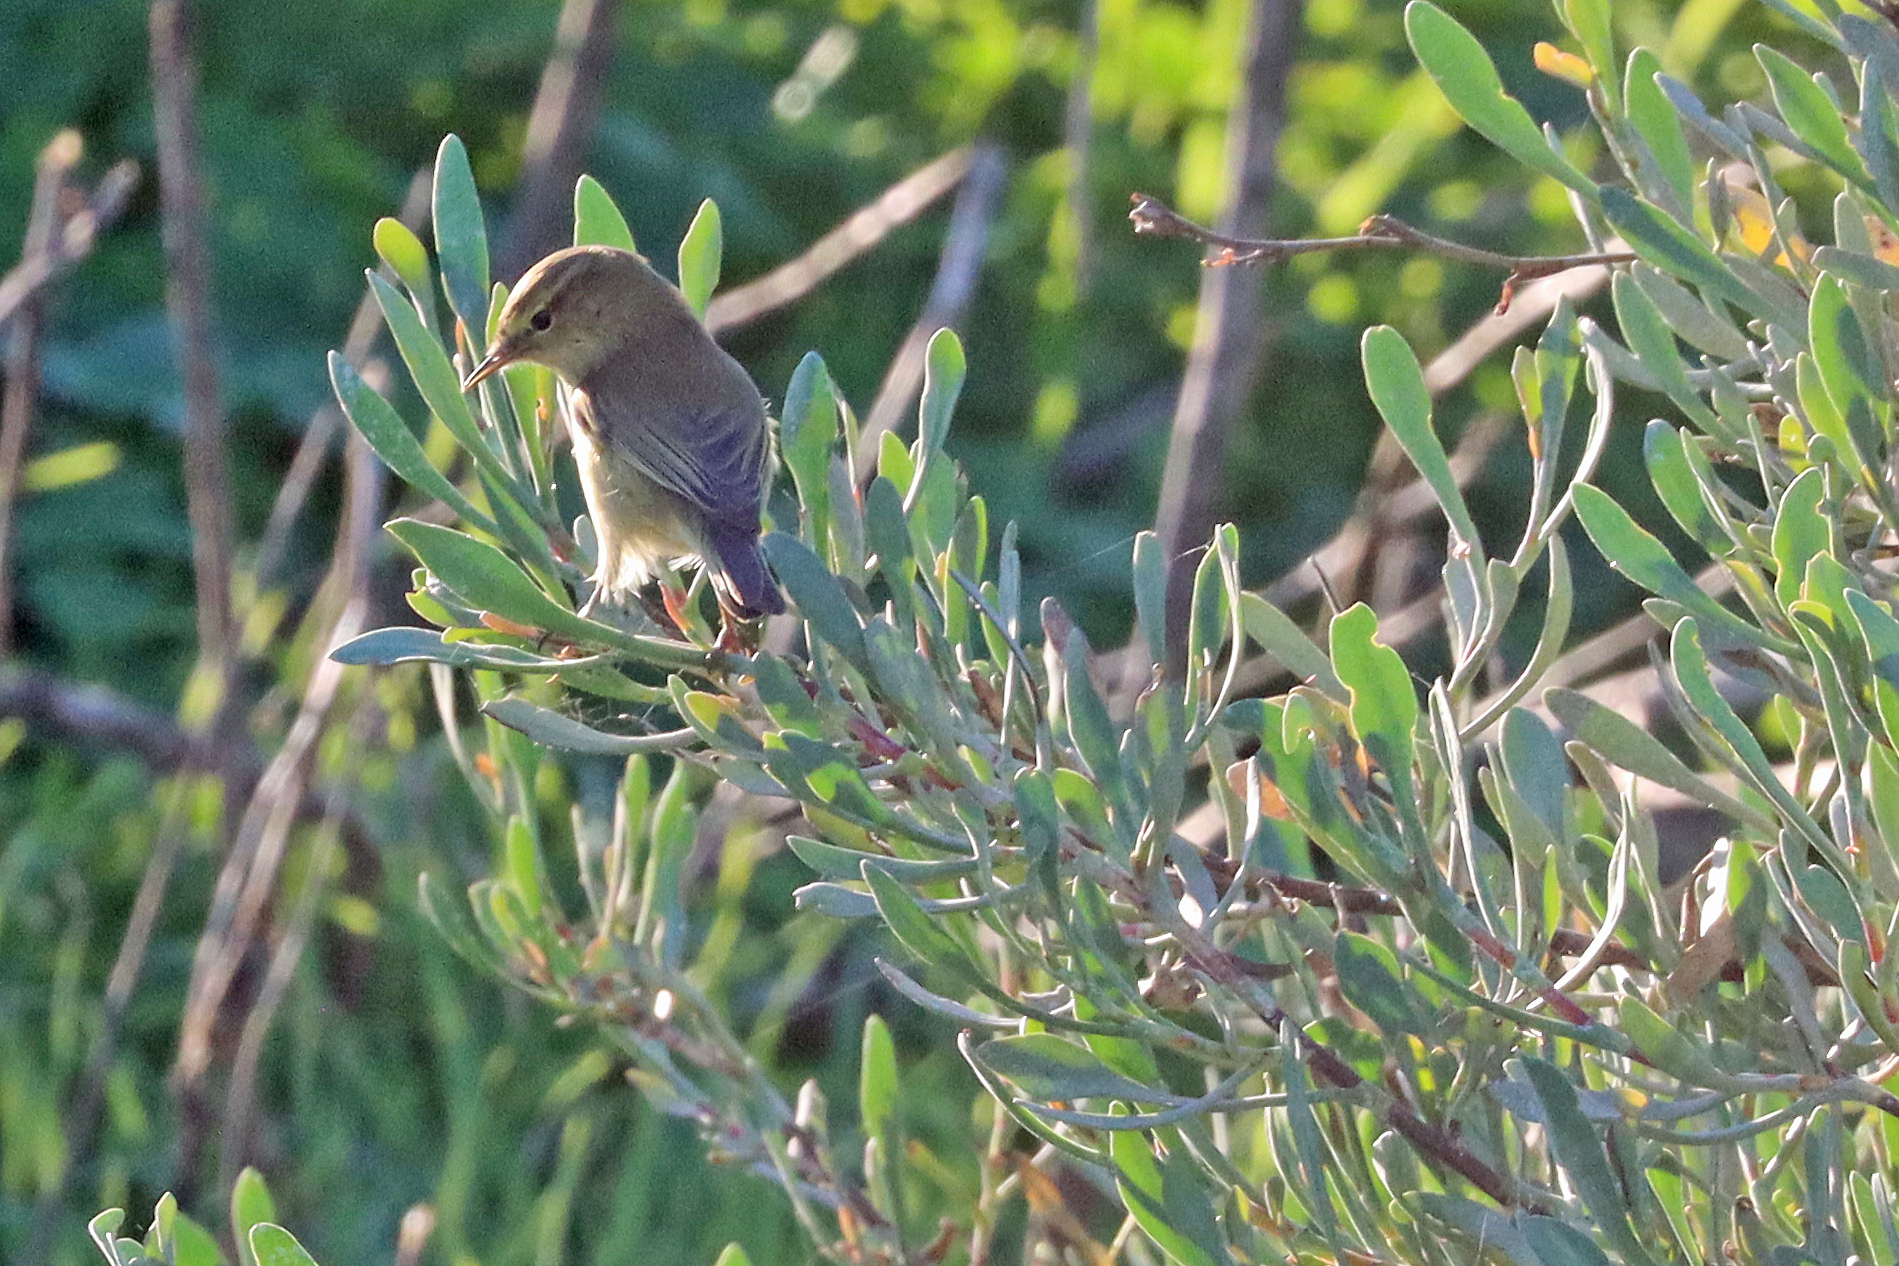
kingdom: Animalia
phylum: Chordata
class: Aves
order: Passeriformes
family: Phylloscopidae
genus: Phylloscopus
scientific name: Phylloscopus collybita
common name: Common chiffchaff
